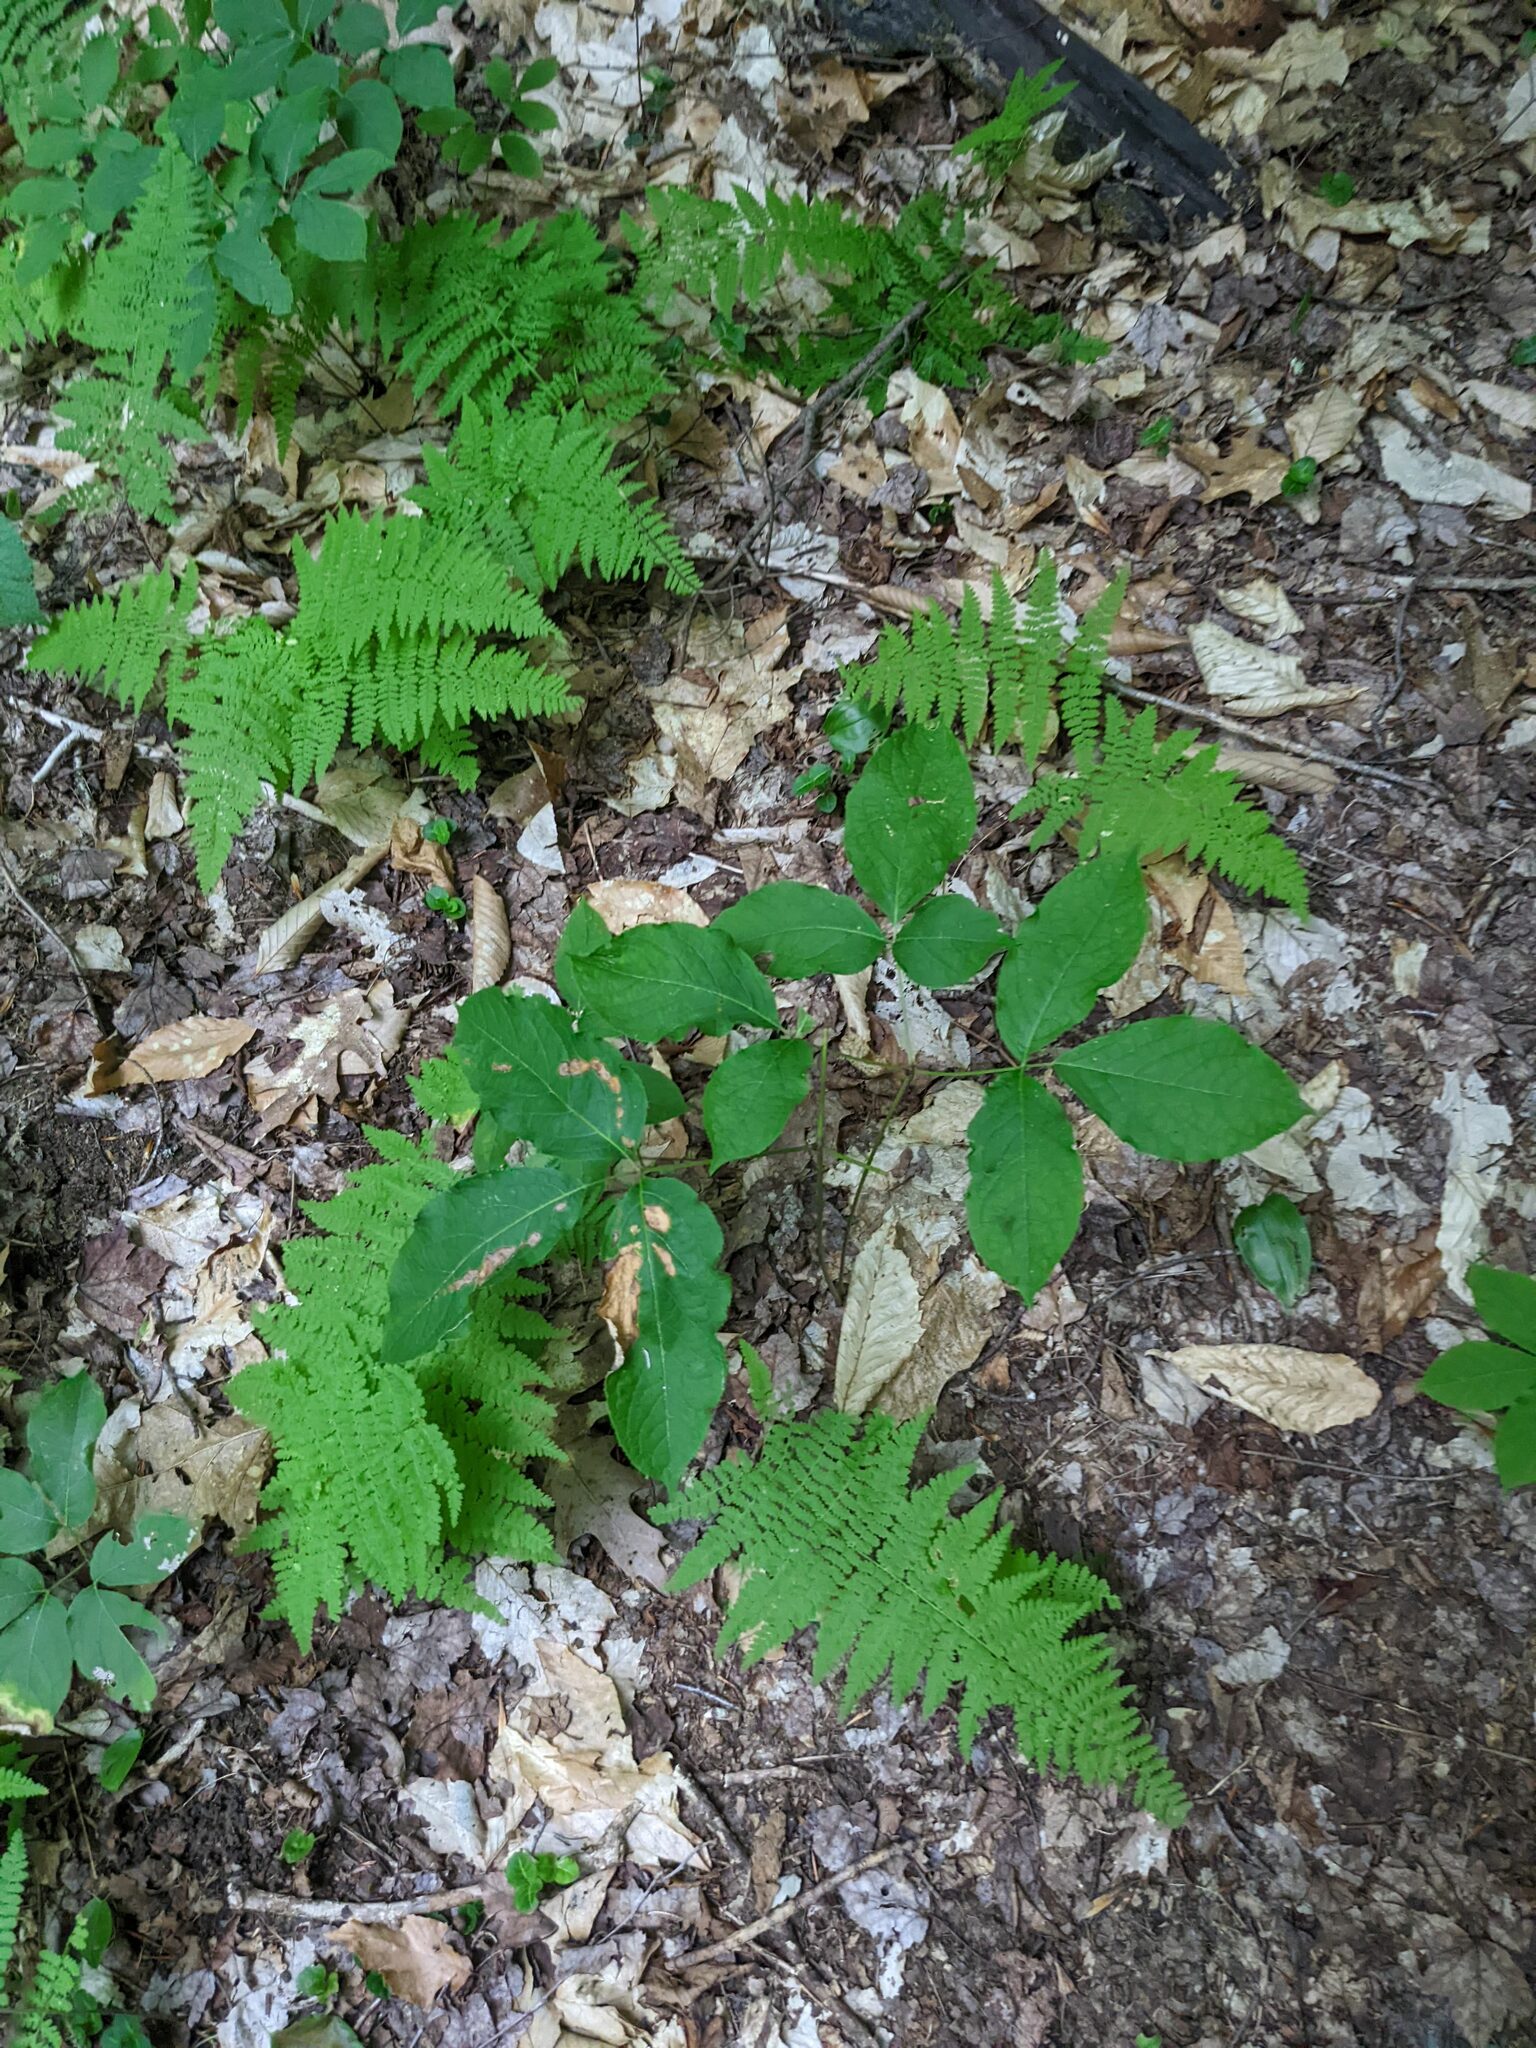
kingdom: Plantae
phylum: Tracheophyta
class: Magnoliopsida
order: Apiales
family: Araliaceae
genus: Aralia
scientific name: Aralia nudicaulis
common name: Wild sarsaparilla
